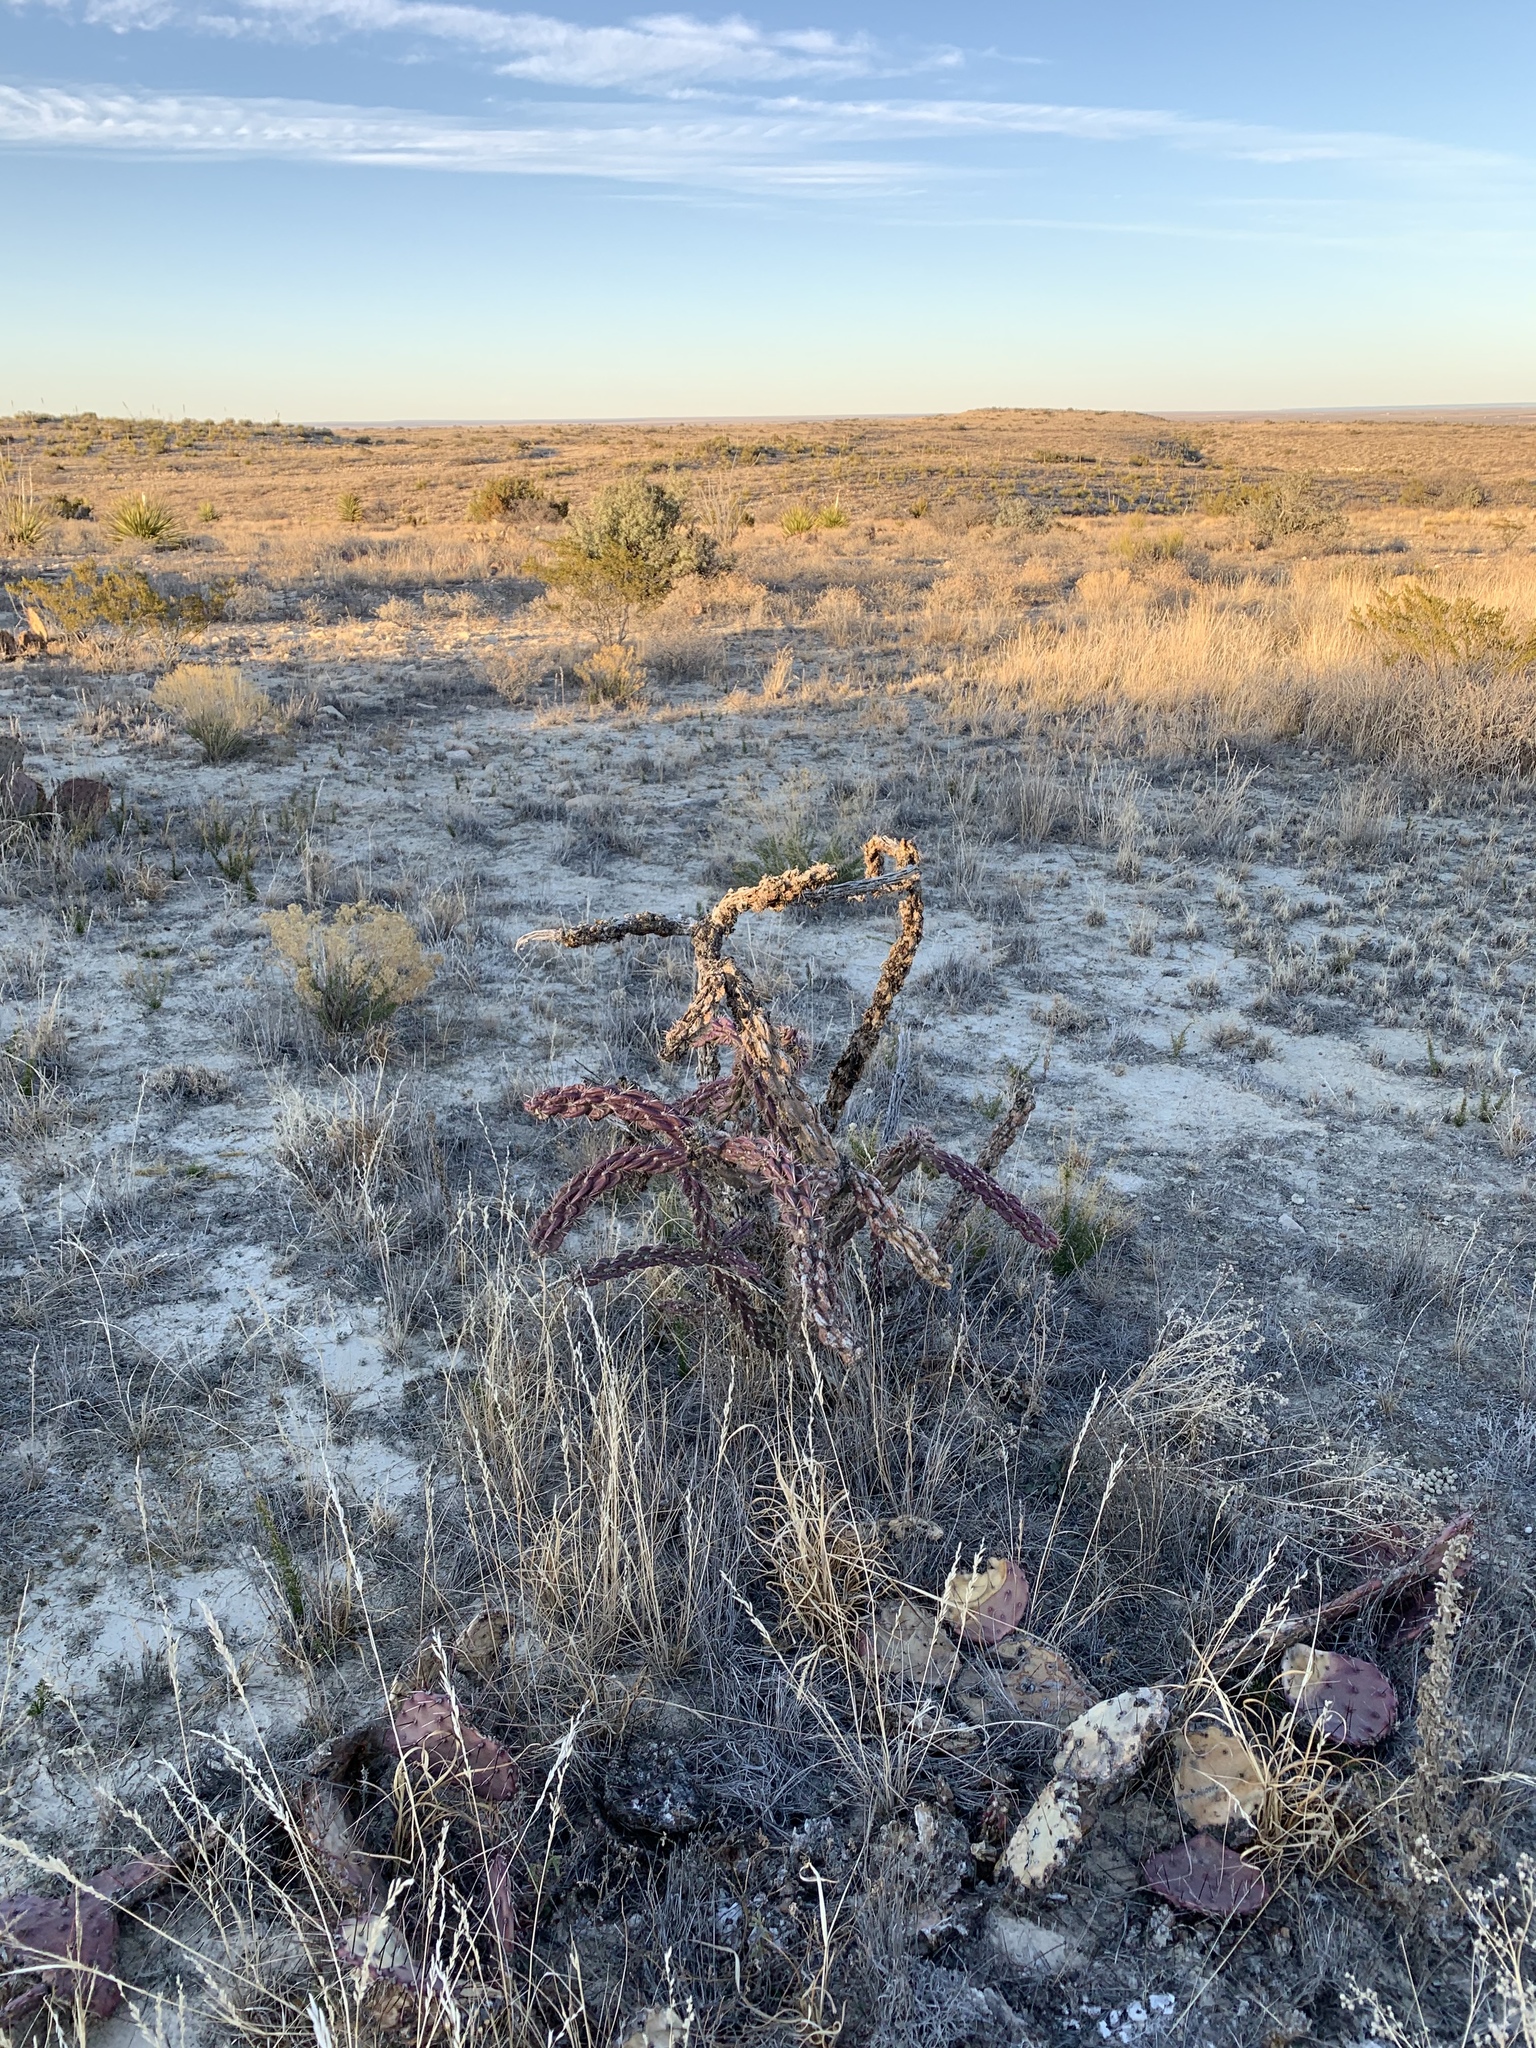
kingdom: Plantae
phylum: Tracheophyta
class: Magnoliopsida
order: Caryophyllales
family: Cactaceae
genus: Cylindropuntia
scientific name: Cylindropuntia imbricata
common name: Candelabrum cactus
